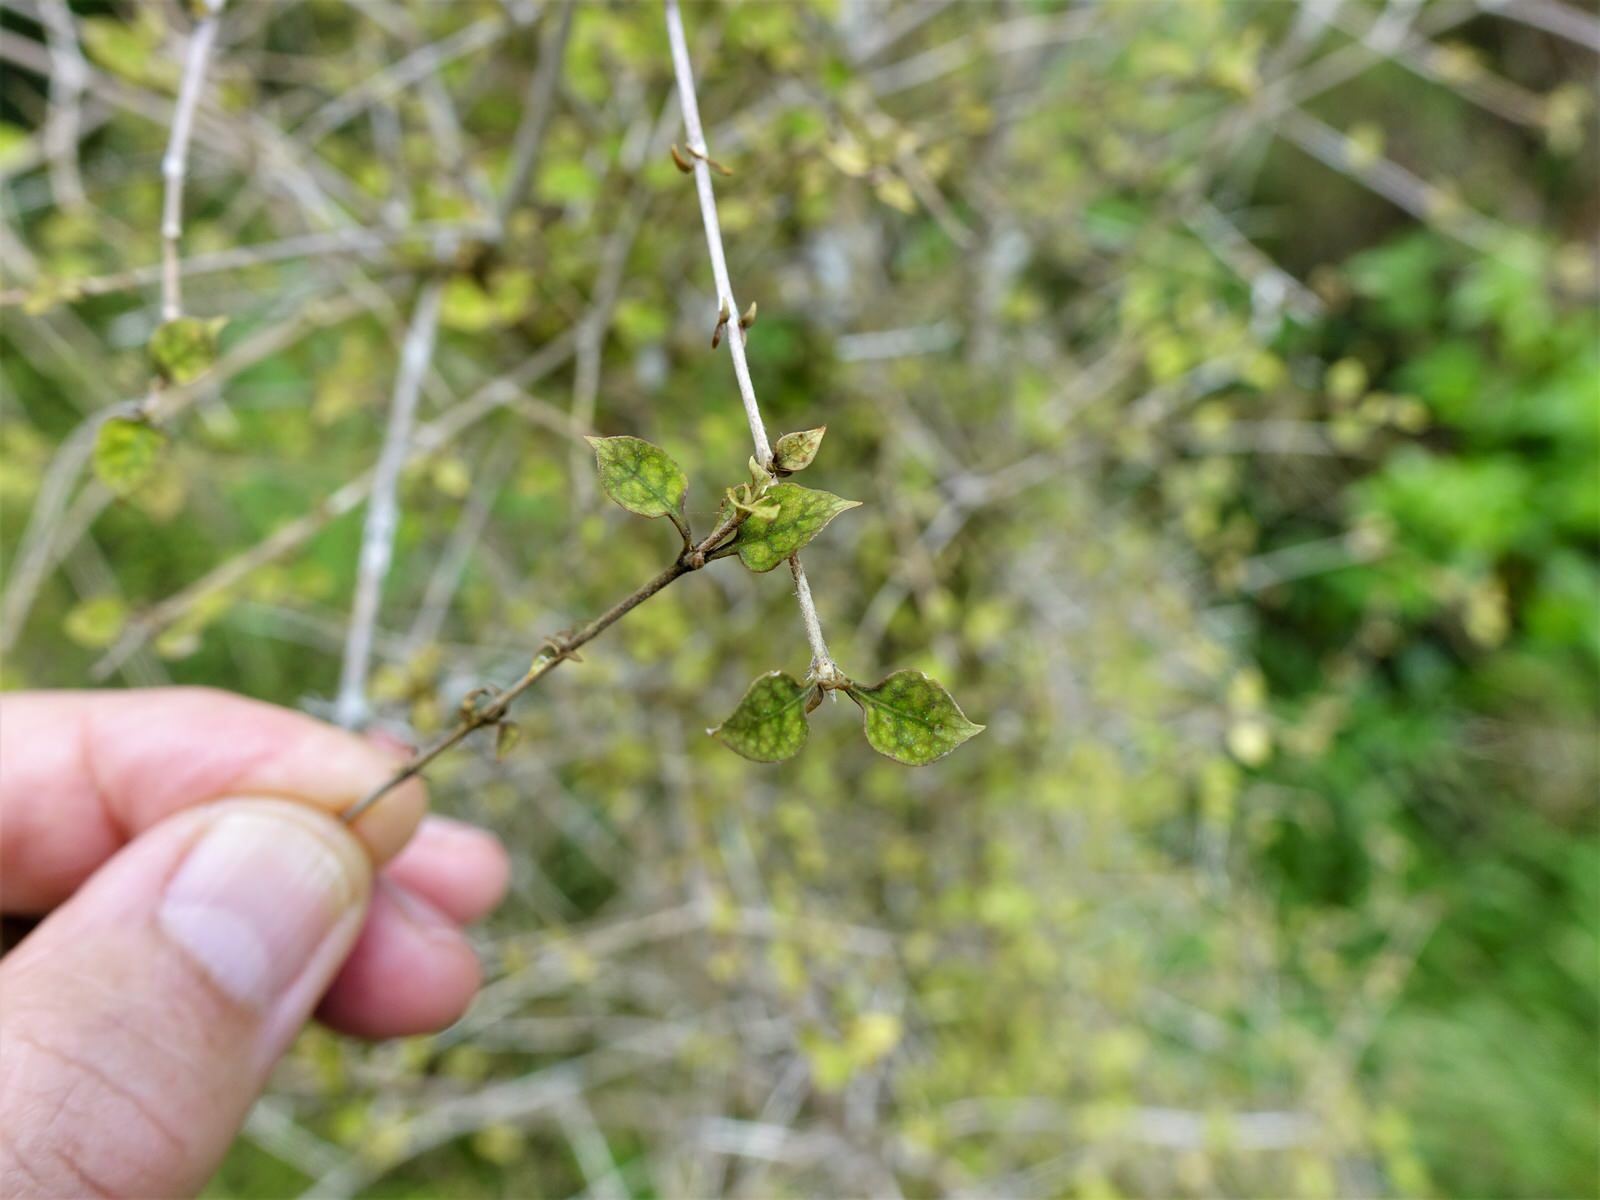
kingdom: Plantae
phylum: Tracheophyta
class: Magnoliopsida
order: Gentianales
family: Rubiaceae
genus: Coprosma
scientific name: Coprosma areolata
